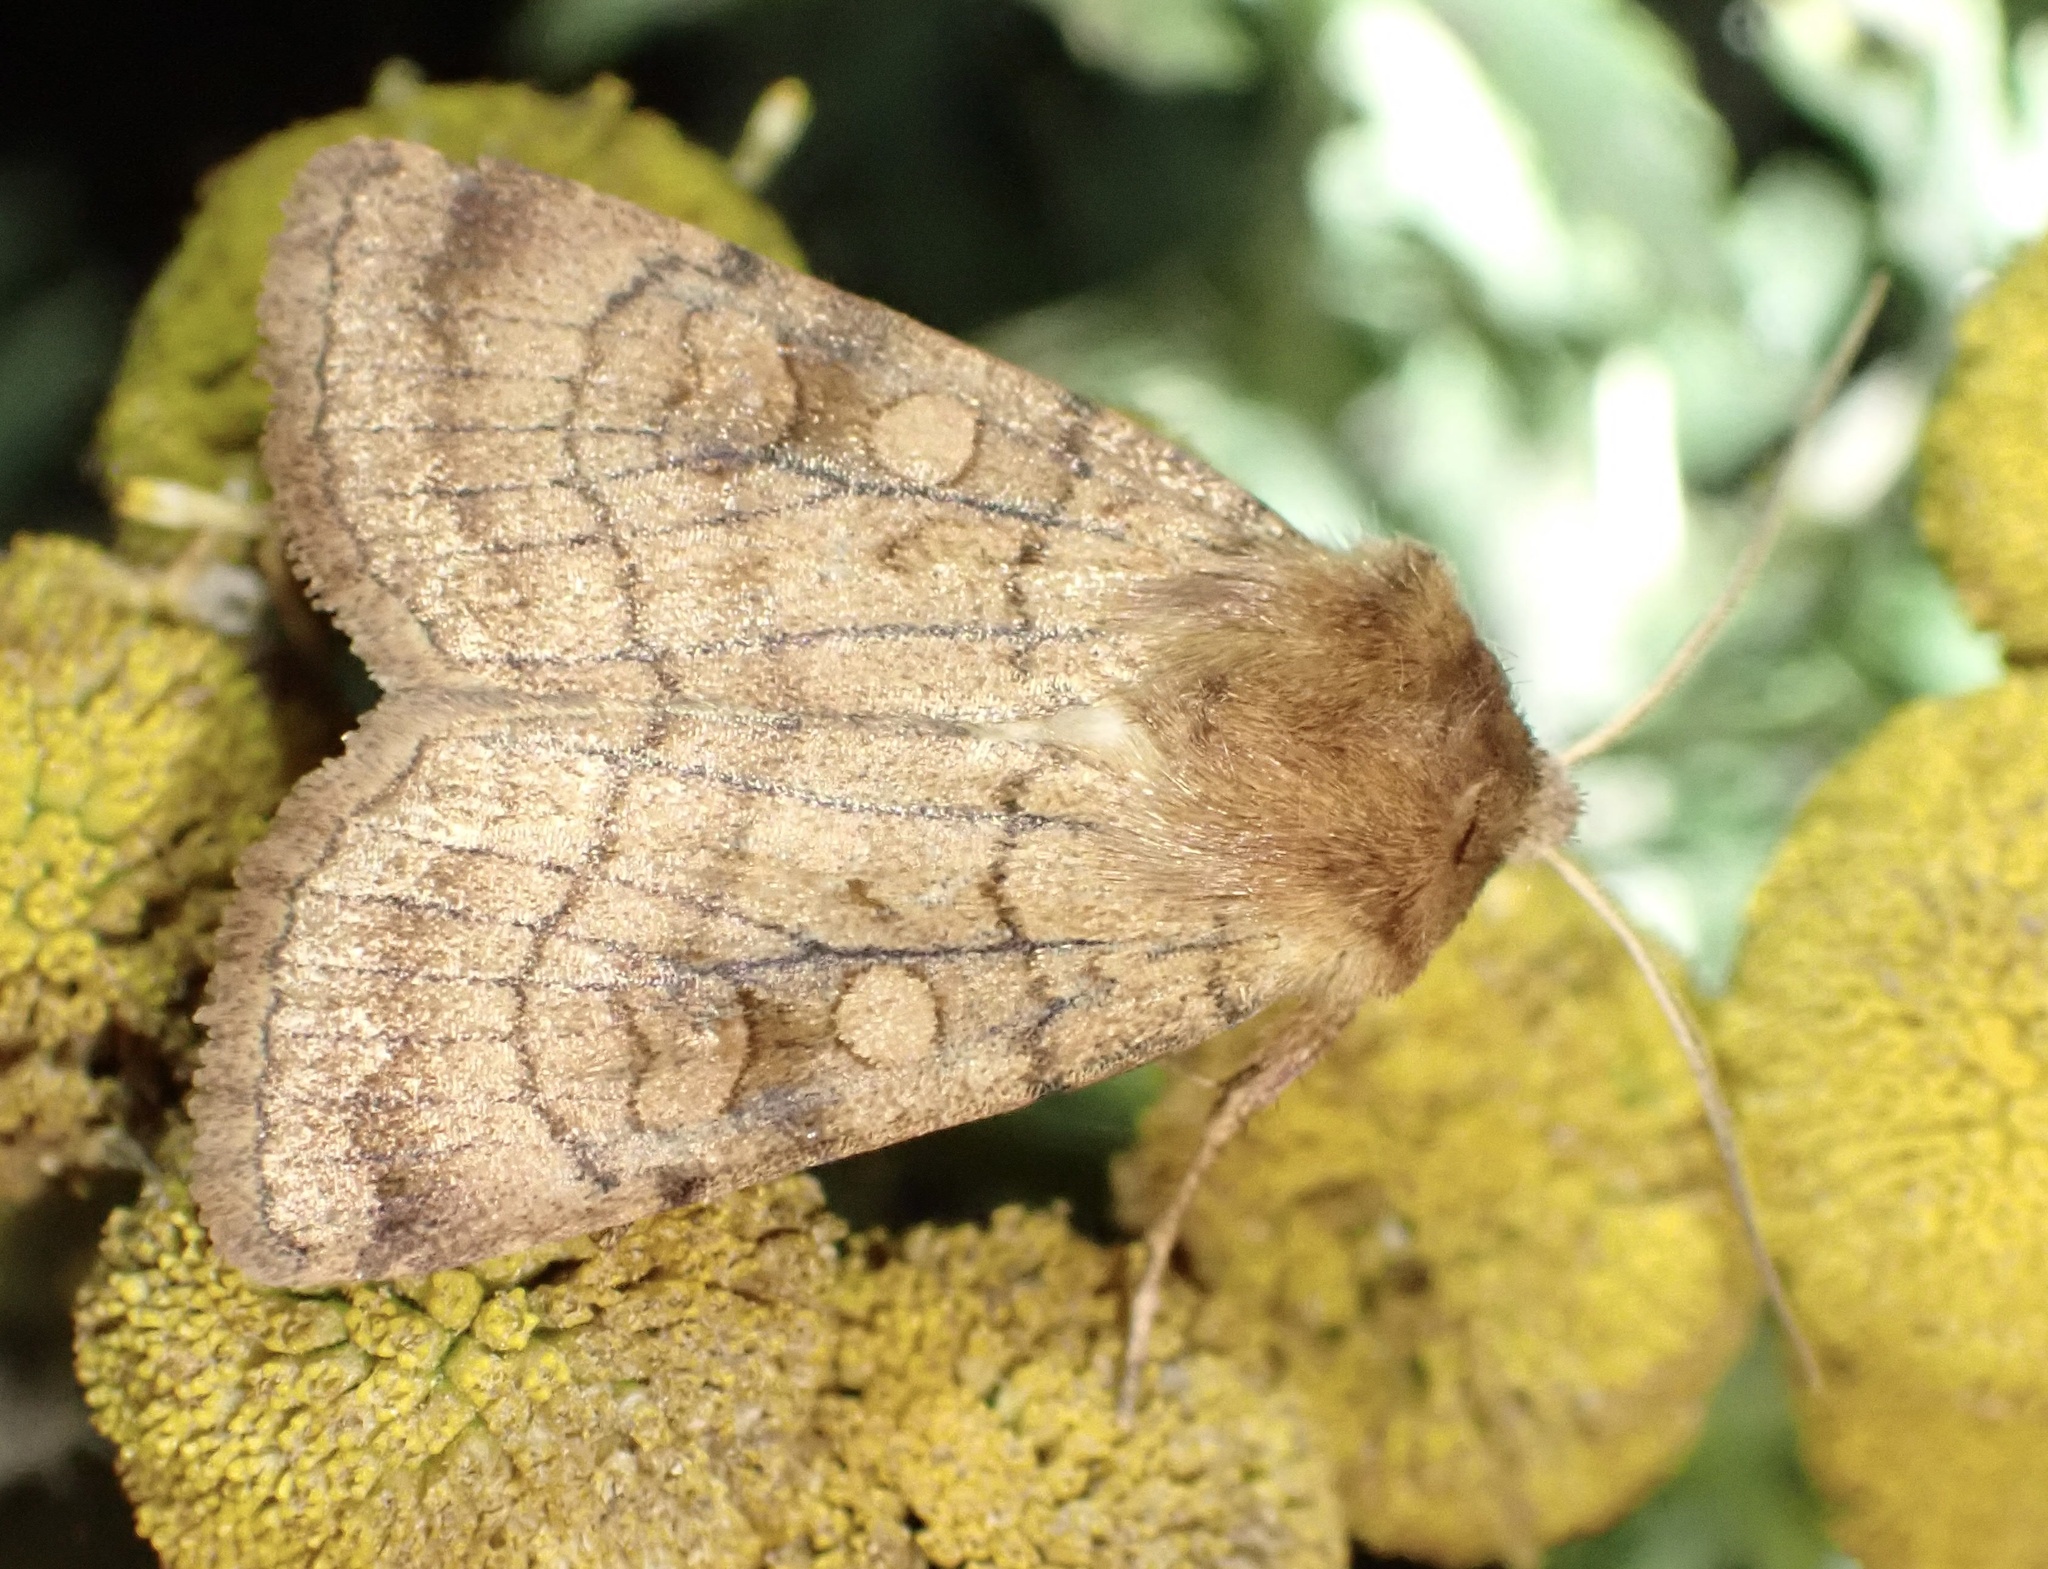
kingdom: Animalia
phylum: Arthropoda
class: Insecta
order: Lepidoptera
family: Noctuidae
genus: Xestia
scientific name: Xestia sexstrigata
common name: Six-striped rustic
